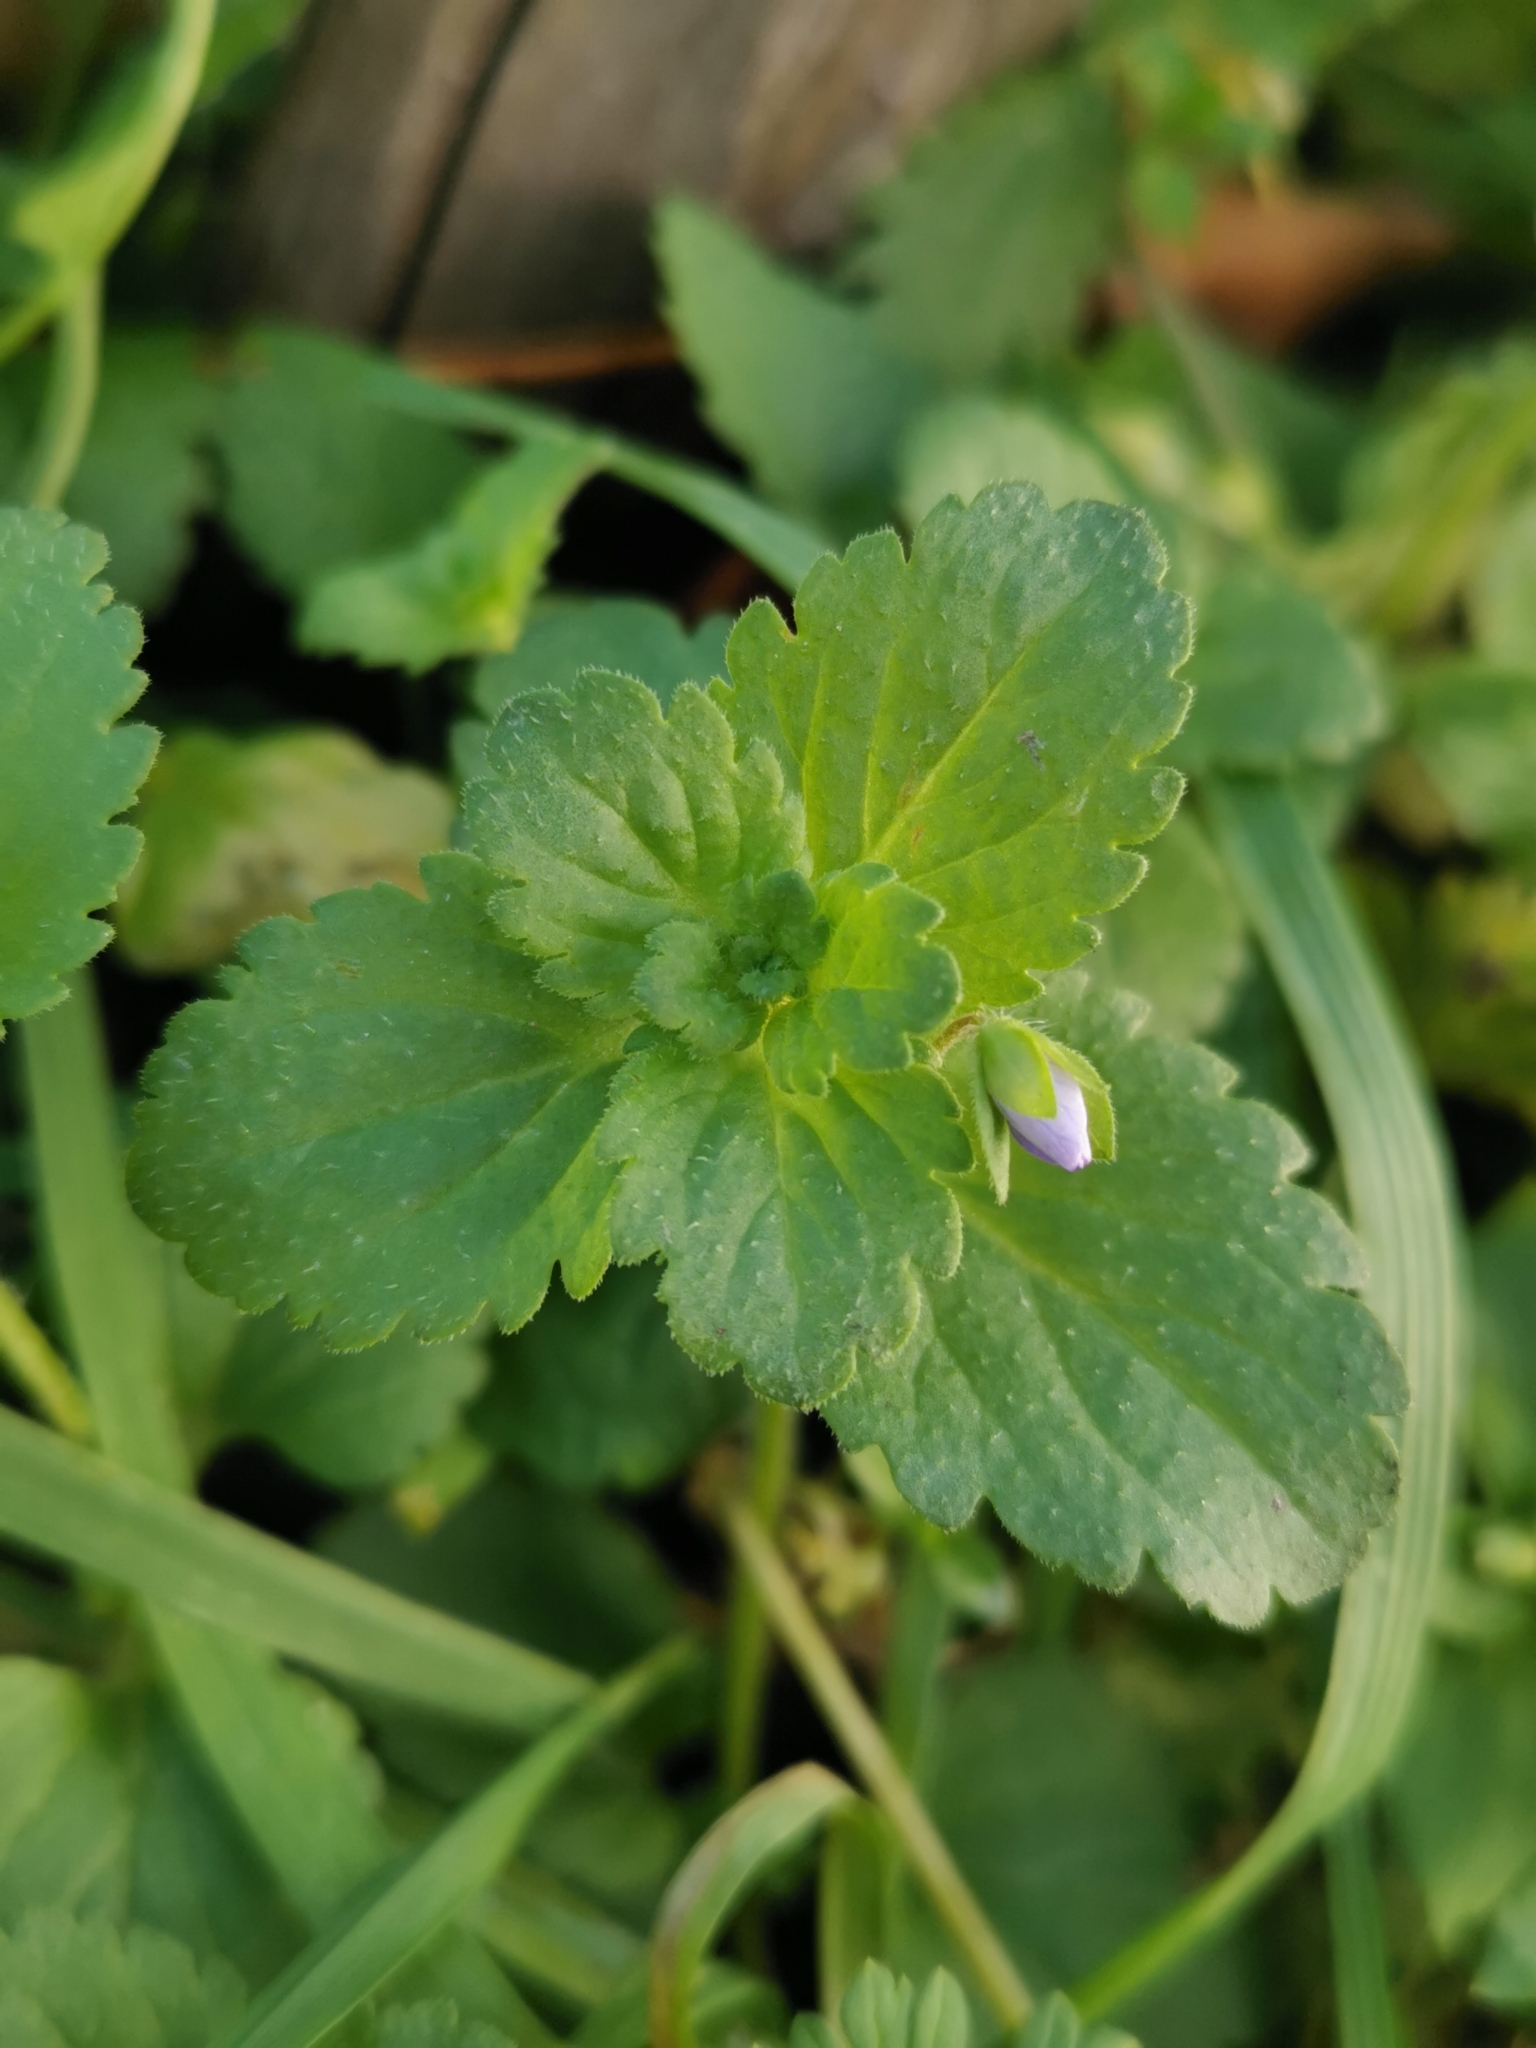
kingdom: Plantae
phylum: Tracheophyta
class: Magnoliopsida
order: Lamiales
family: Plantaginaceae
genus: Veronica
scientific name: Veronica persica
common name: Common field-speedwell
